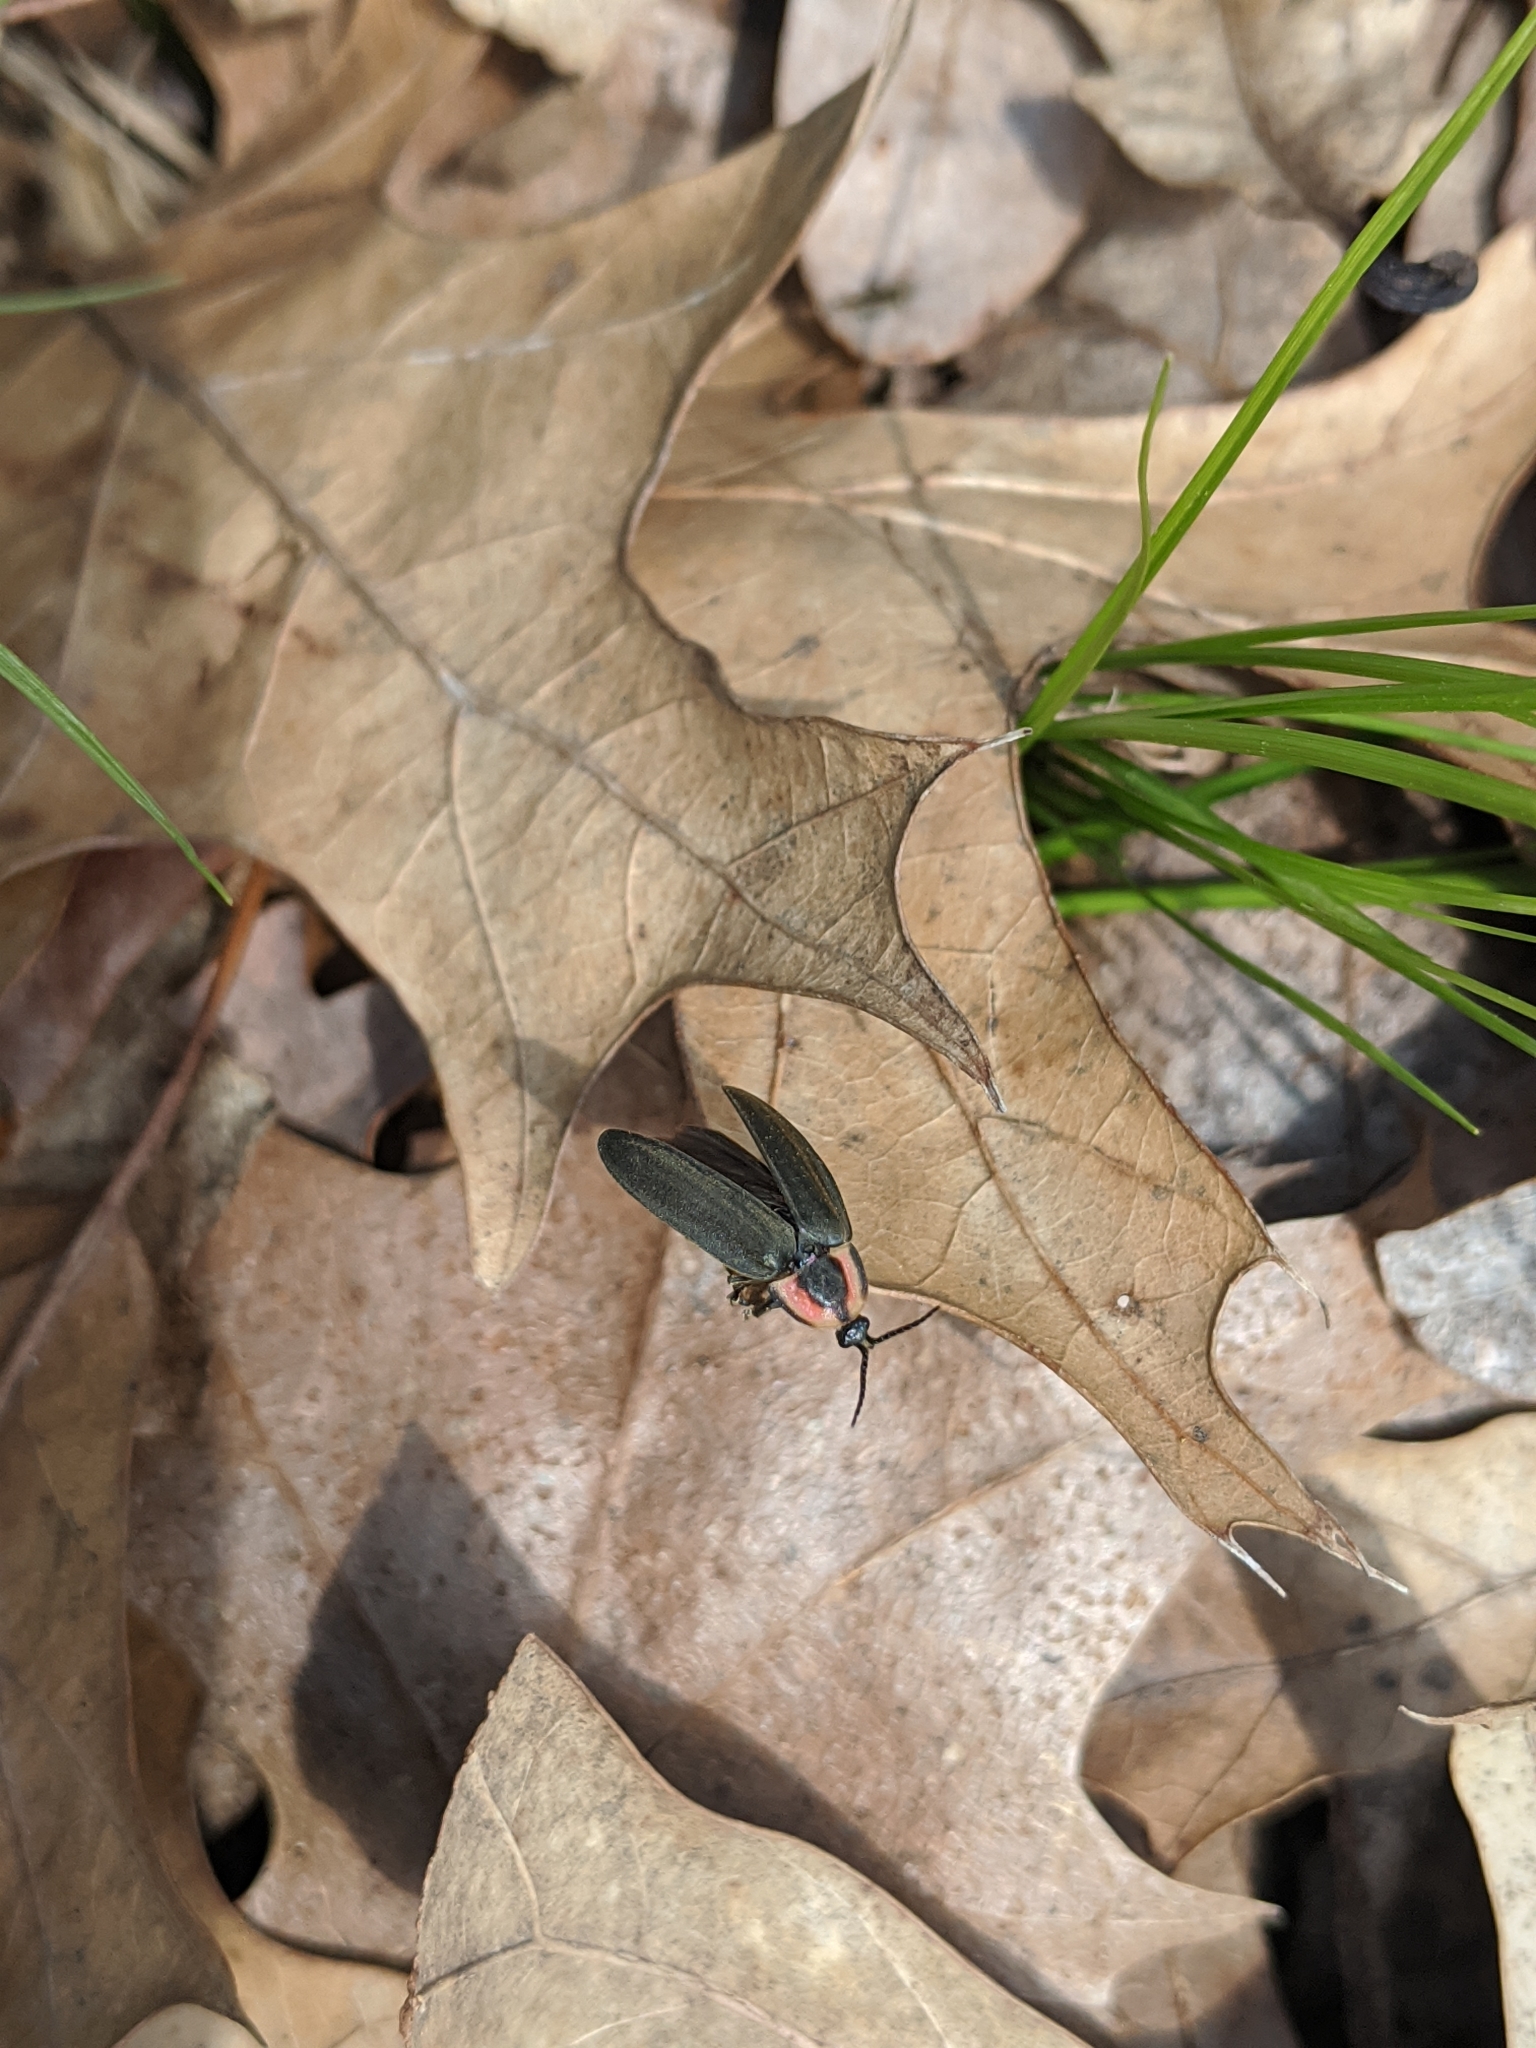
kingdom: Animalia
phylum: Arthropoda
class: Insecta
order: Coleoptera
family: Lampyridae
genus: Photinus
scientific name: Photinus corrusca
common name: Winter firefly
